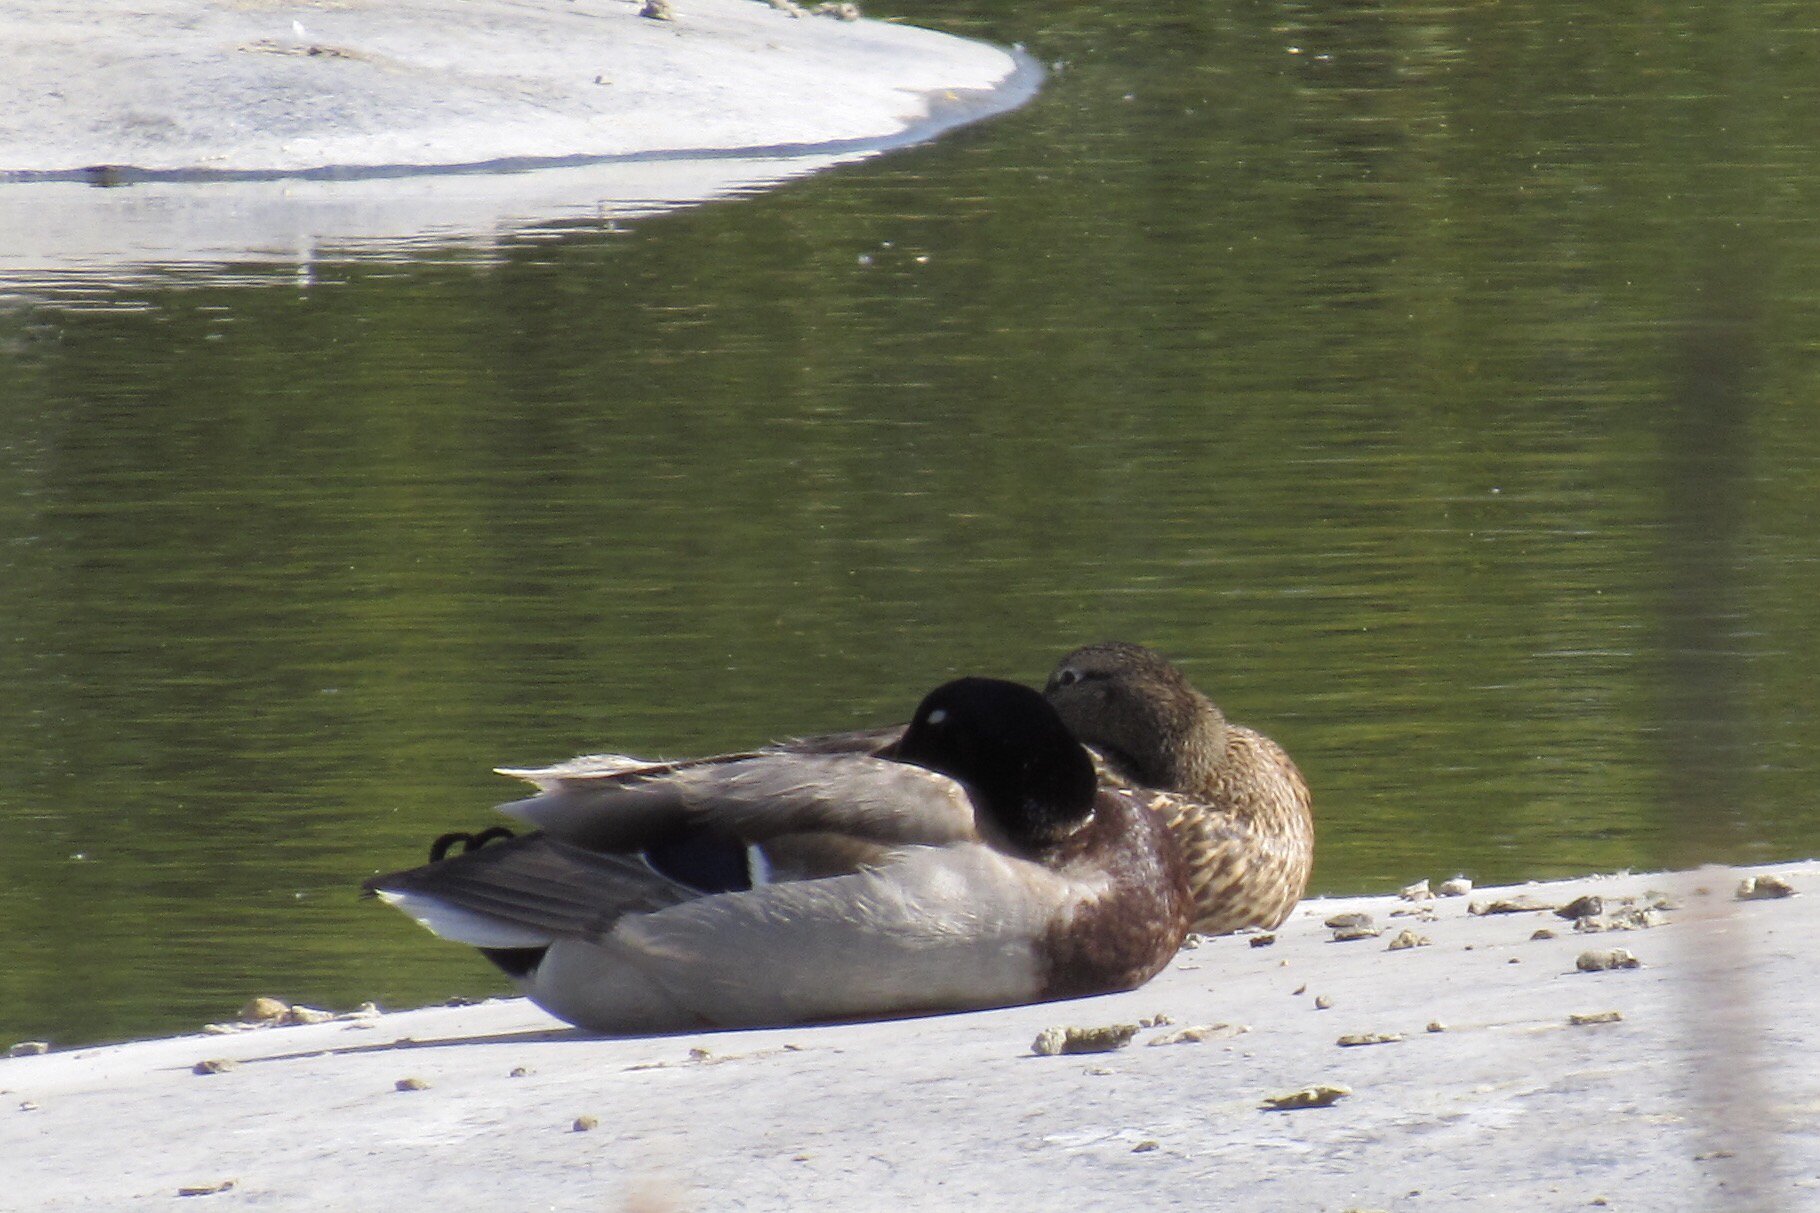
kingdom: Animalia
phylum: Chordata
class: Aves
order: Anseriformes
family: Anatidae
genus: Anas
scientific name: Anas platyrhynchos
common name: Mallard
